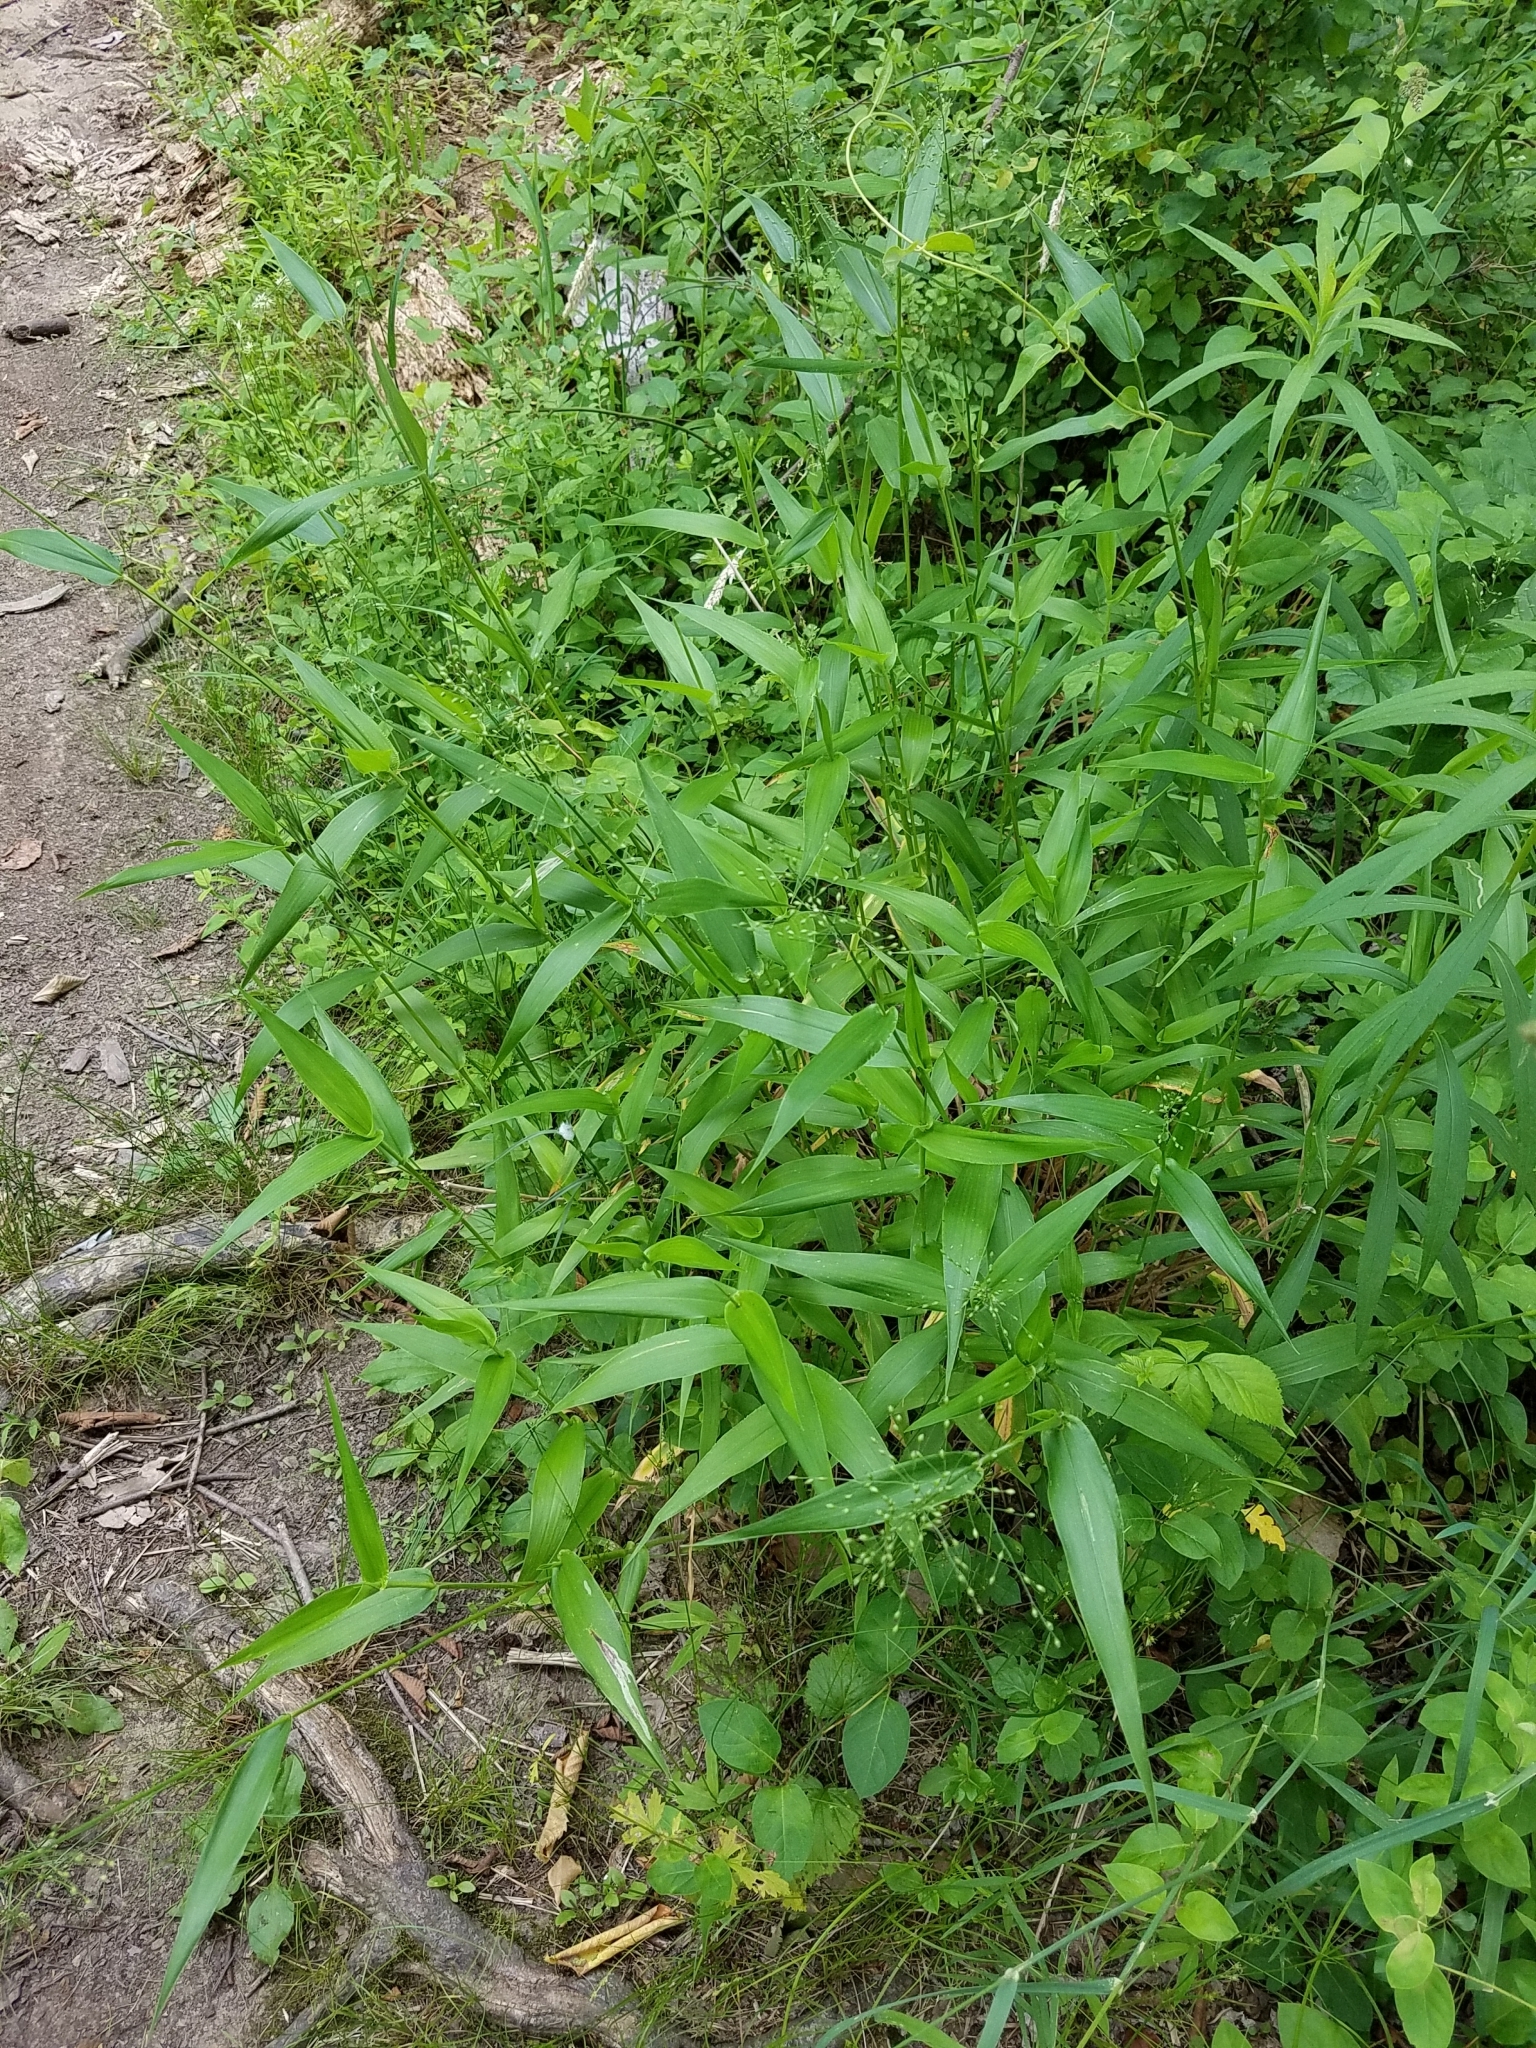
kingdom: Plantae
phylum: Tracheophyta
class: Liliopsida
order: Poales
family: Poaceae
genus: Dichanthelium
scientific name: Dichanthelium clandestinum
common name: Deer-tongue grass
